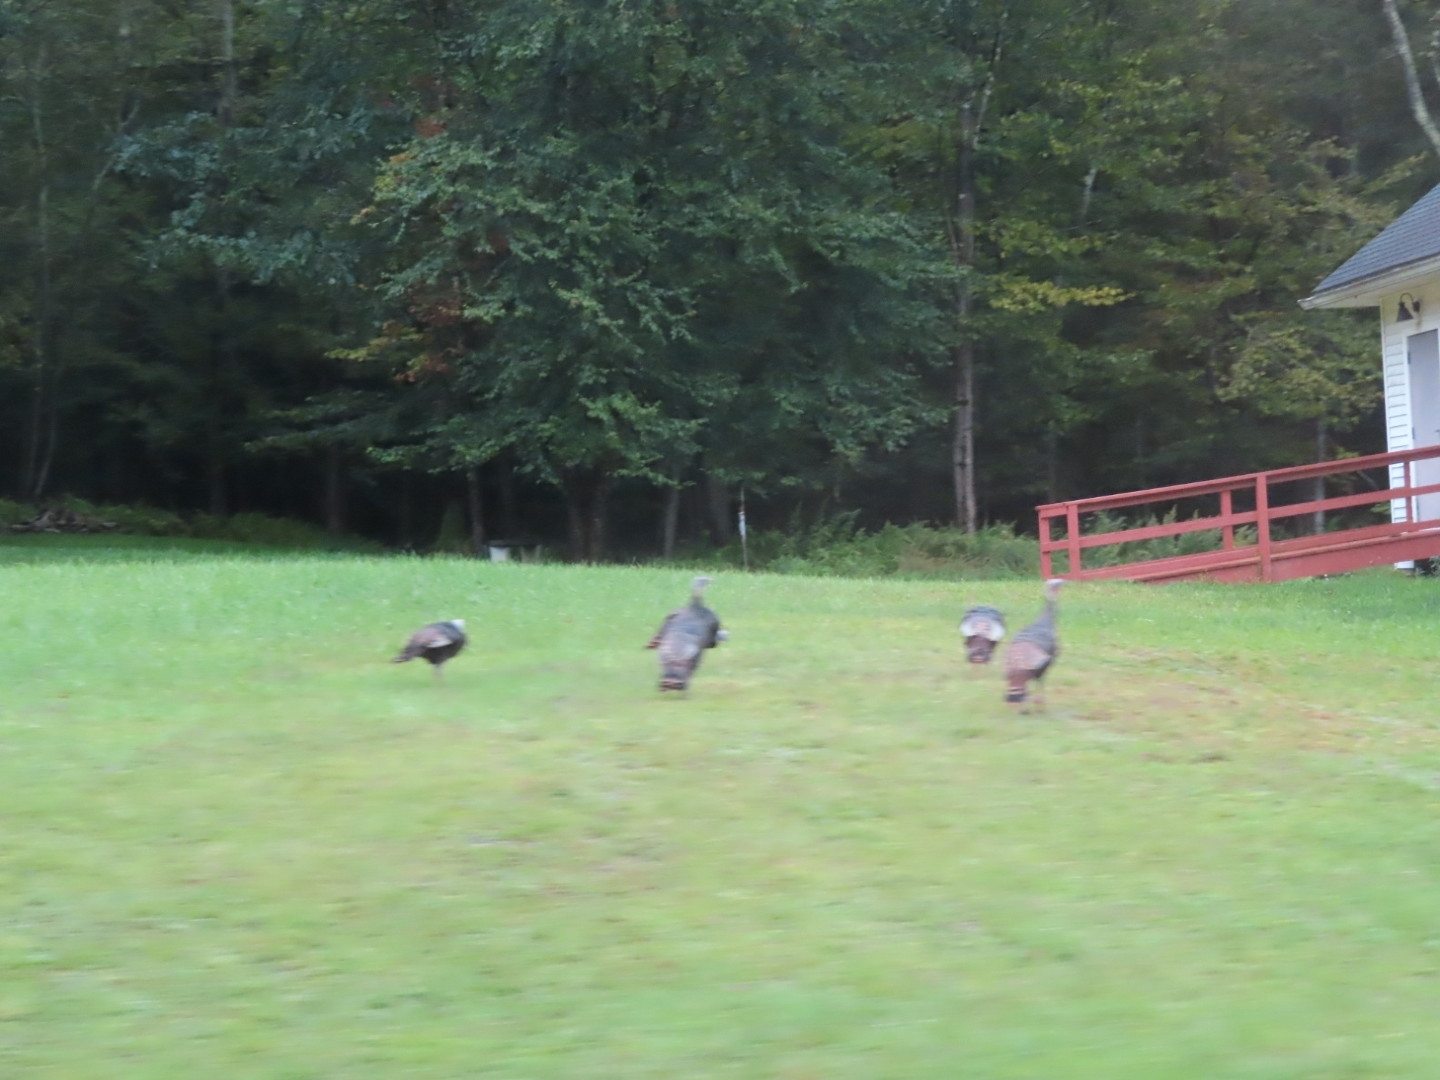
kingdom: Animalia
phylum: Chordata
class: Aves
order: Galliformes
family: Phasianidae
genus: Meleagris
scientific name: Meleagris gallopavo
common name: Wild turkey
